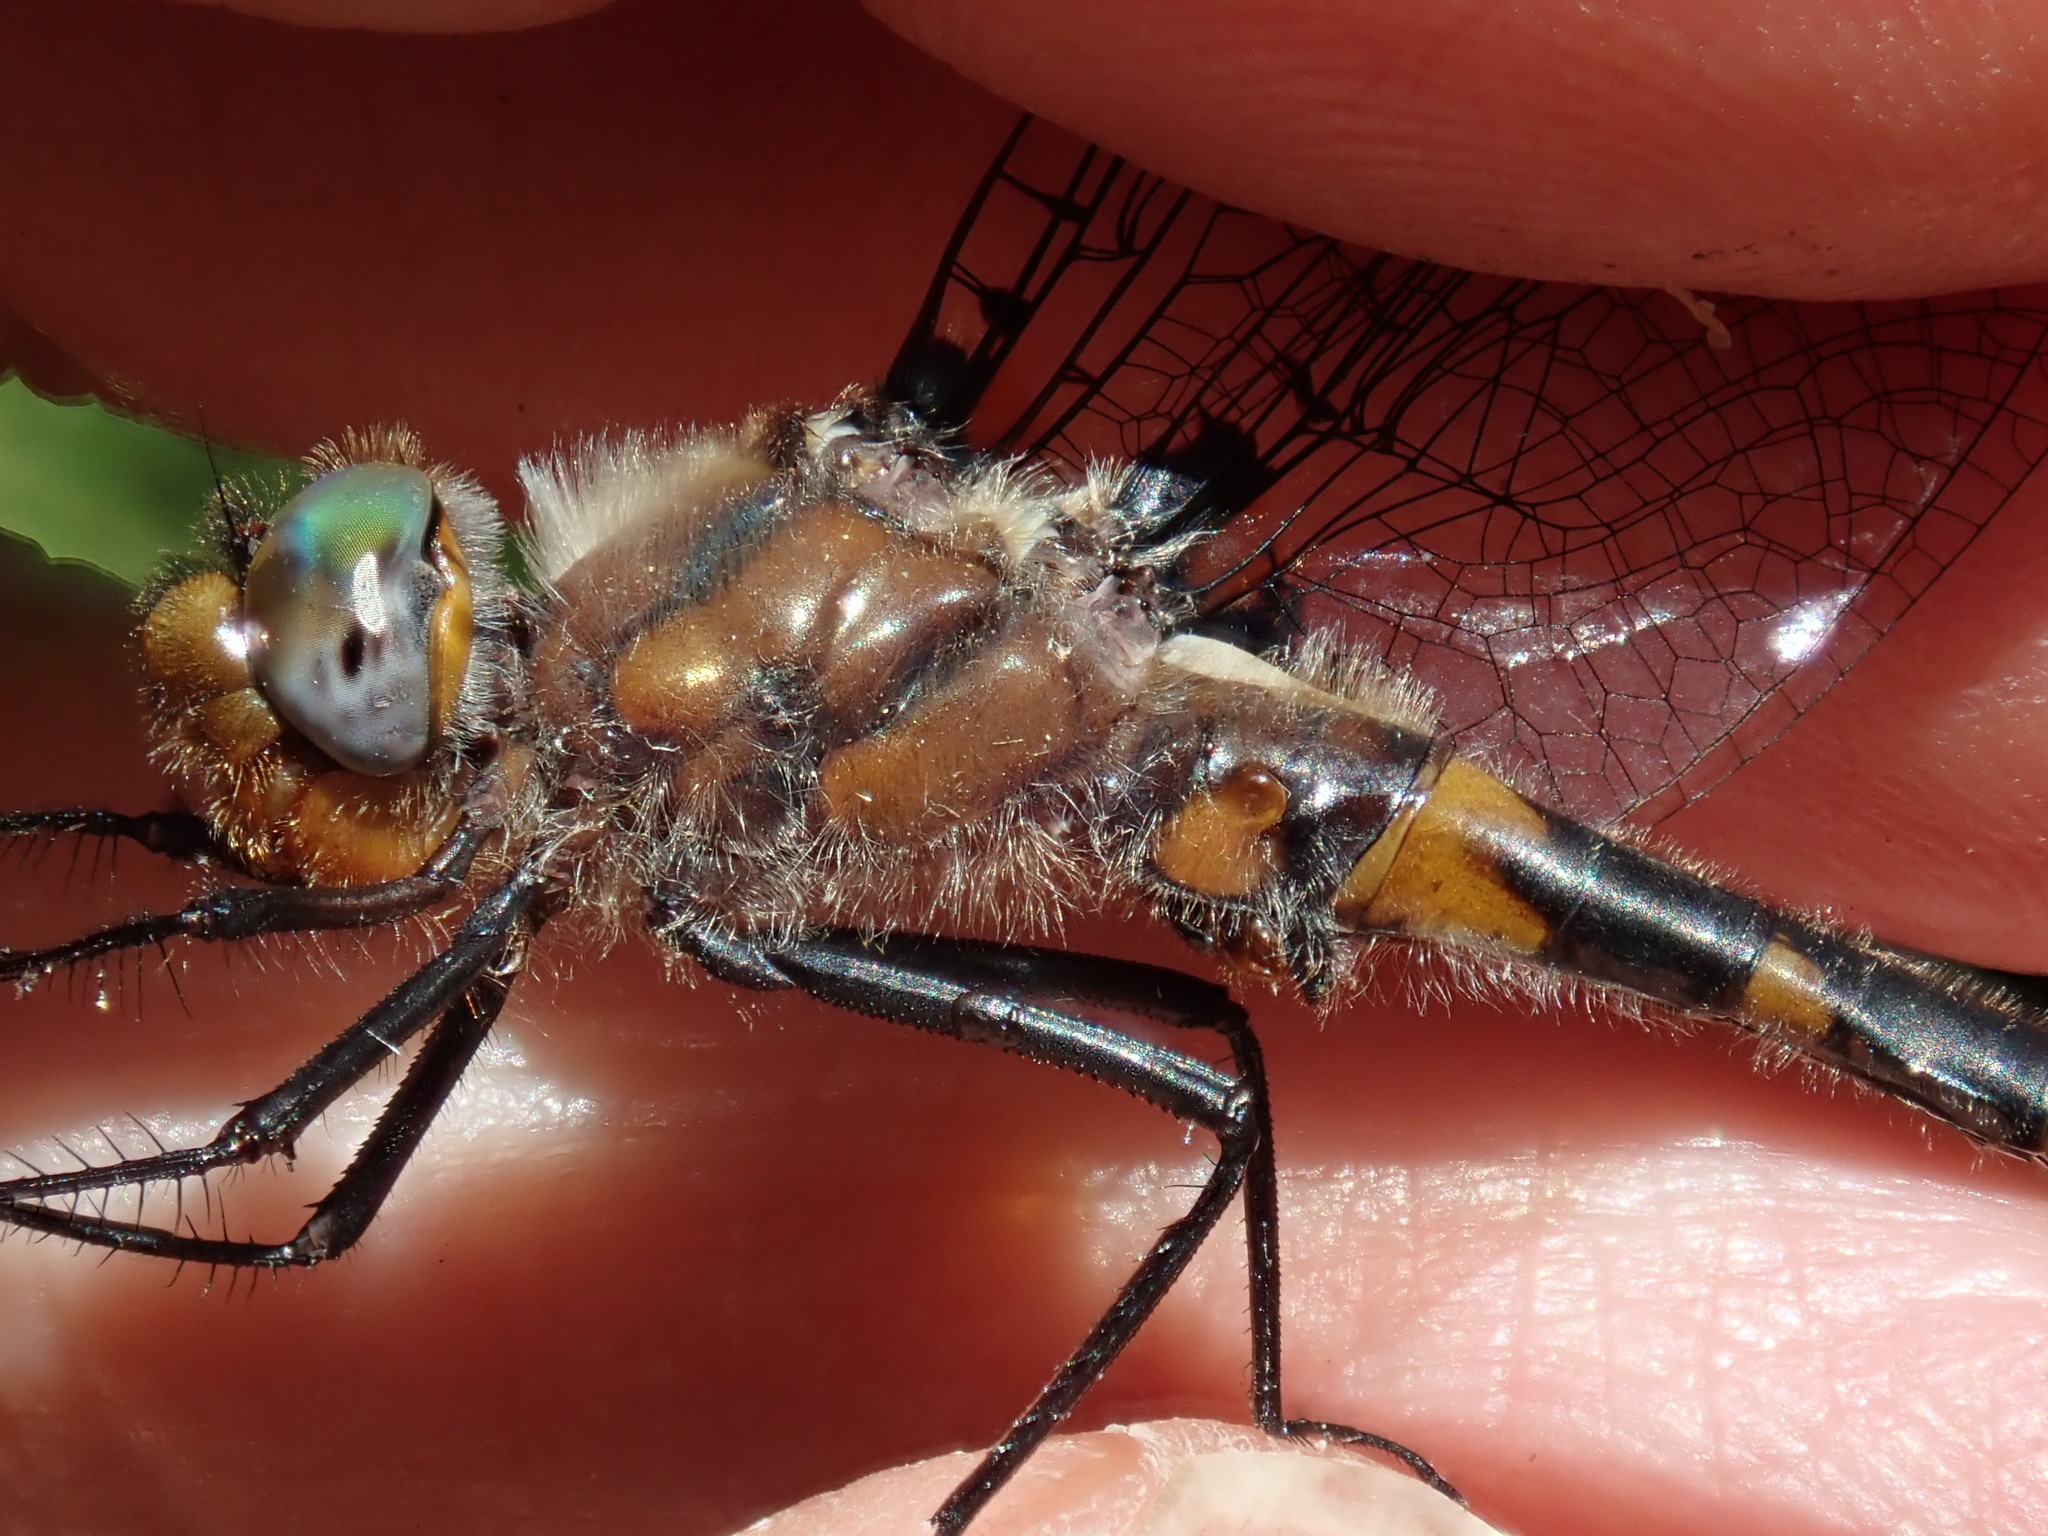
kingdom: Animalia
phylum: Arthropoda
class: Insecta
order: Odonata
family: Corduliidae
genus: Helocordulia
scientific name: Helocordulia uhleri
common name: Uhler's sundragon
